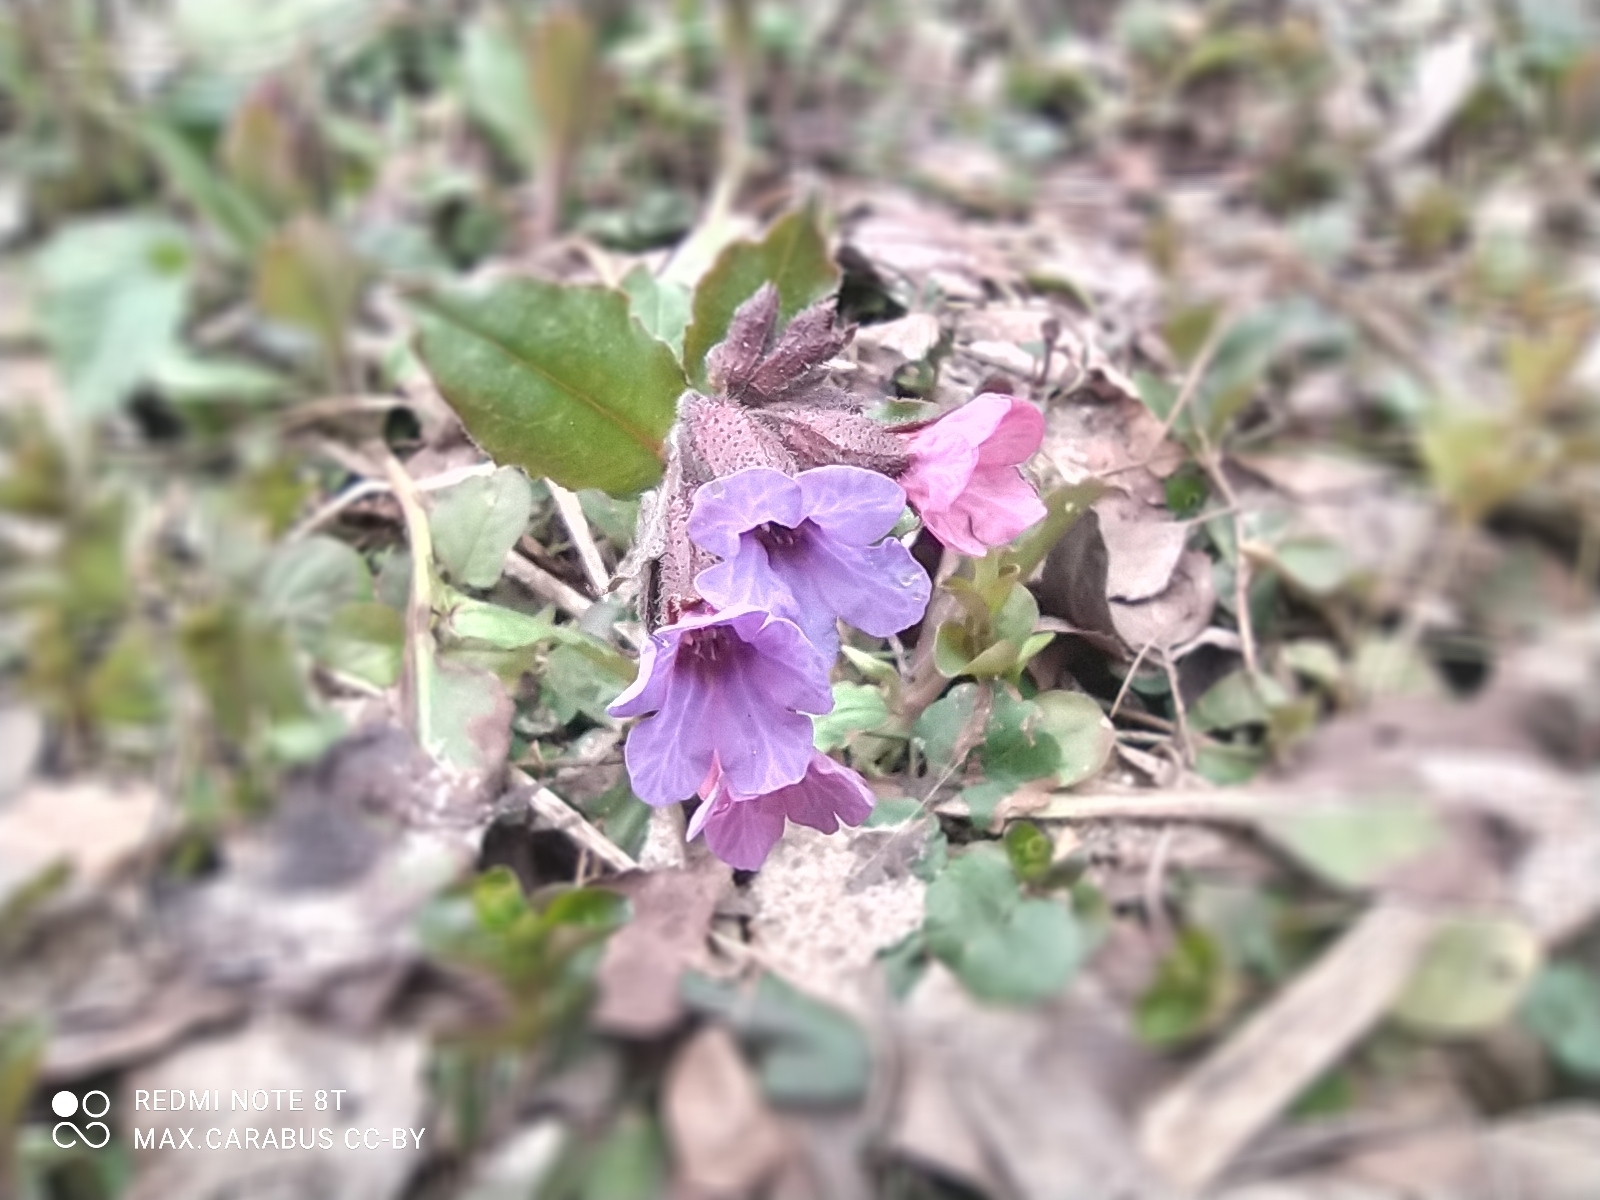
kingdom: Plantae
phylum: Tracheophyta
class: Magnoliopsida
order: Boraginales
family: Boraginaceae
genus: Pulmonaria
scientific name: Pulmonaria obscura
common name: Suffolk lungwort
